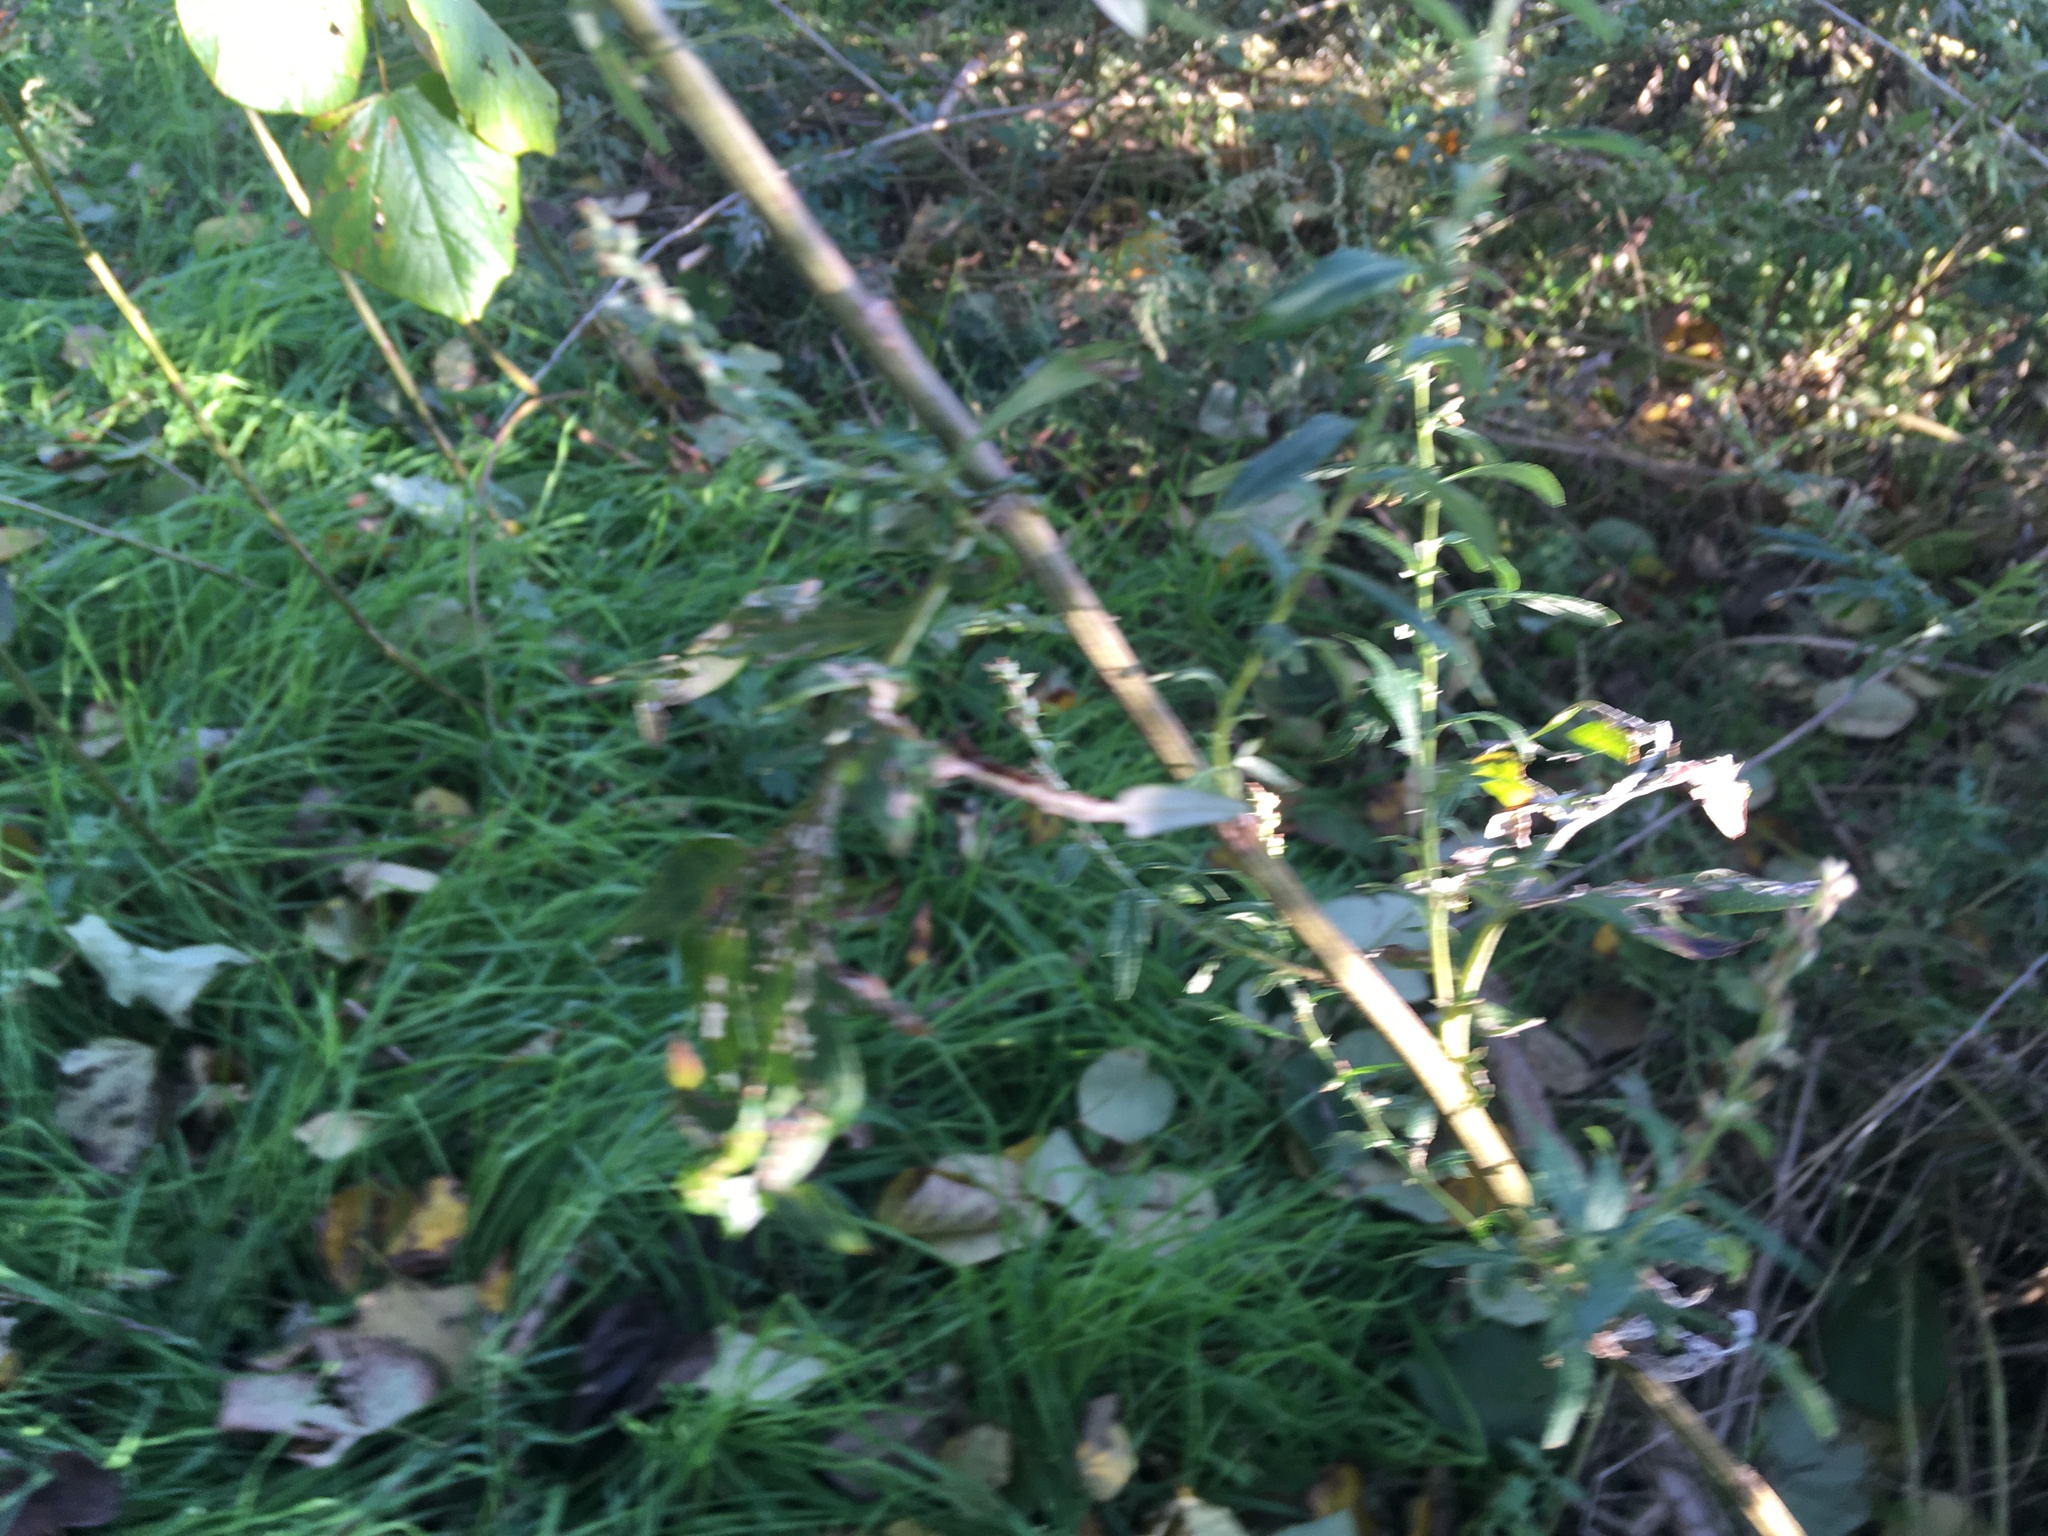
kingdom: Plantae
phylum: Tracheophyta
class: Magnoliopsida
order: Asterales
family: Asteraceae
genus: Artemisia
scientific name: Artemisia vulgaris
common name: Mugwort
